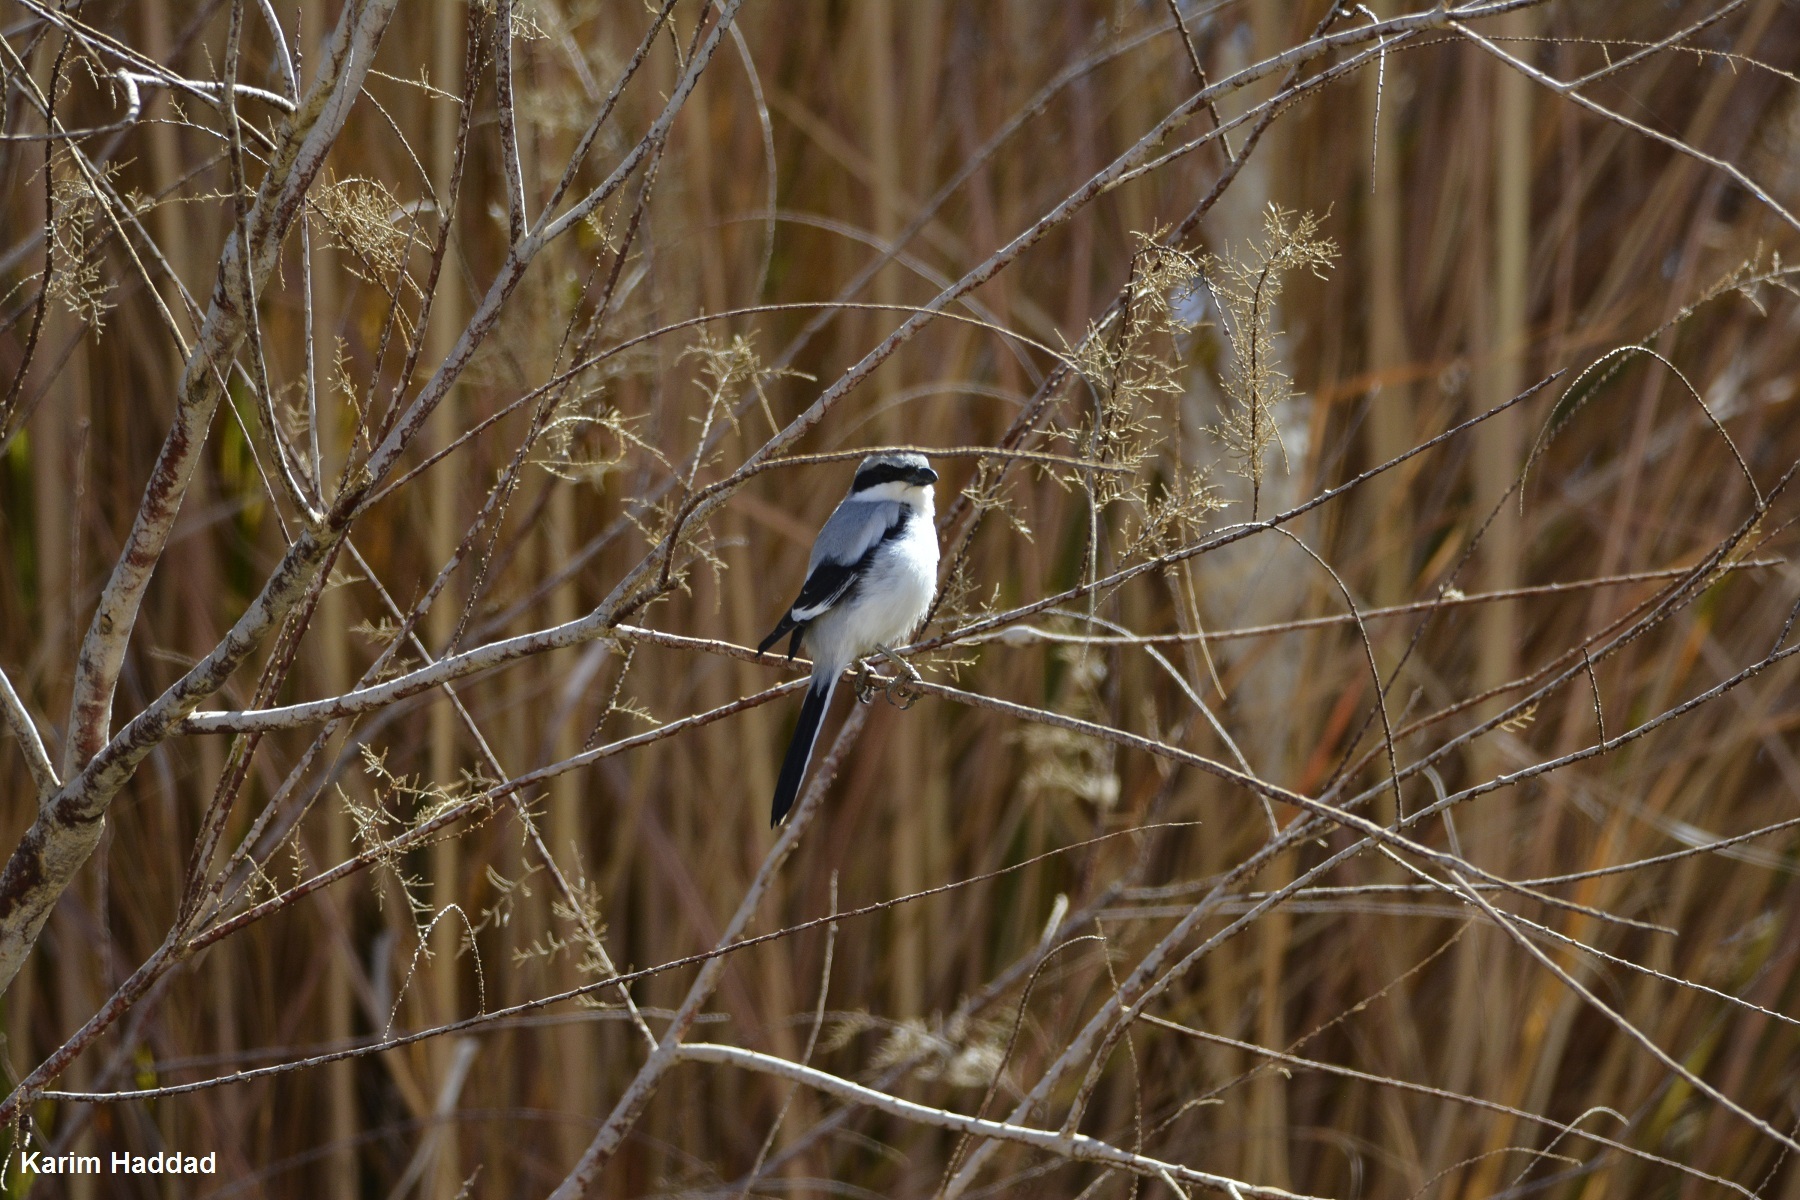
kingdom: Animalia
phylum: Chordata
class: Aves
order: Passeriformes
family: Laniidae
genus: Lanius
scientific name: Lanius excubitor
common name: Great grey shrike
